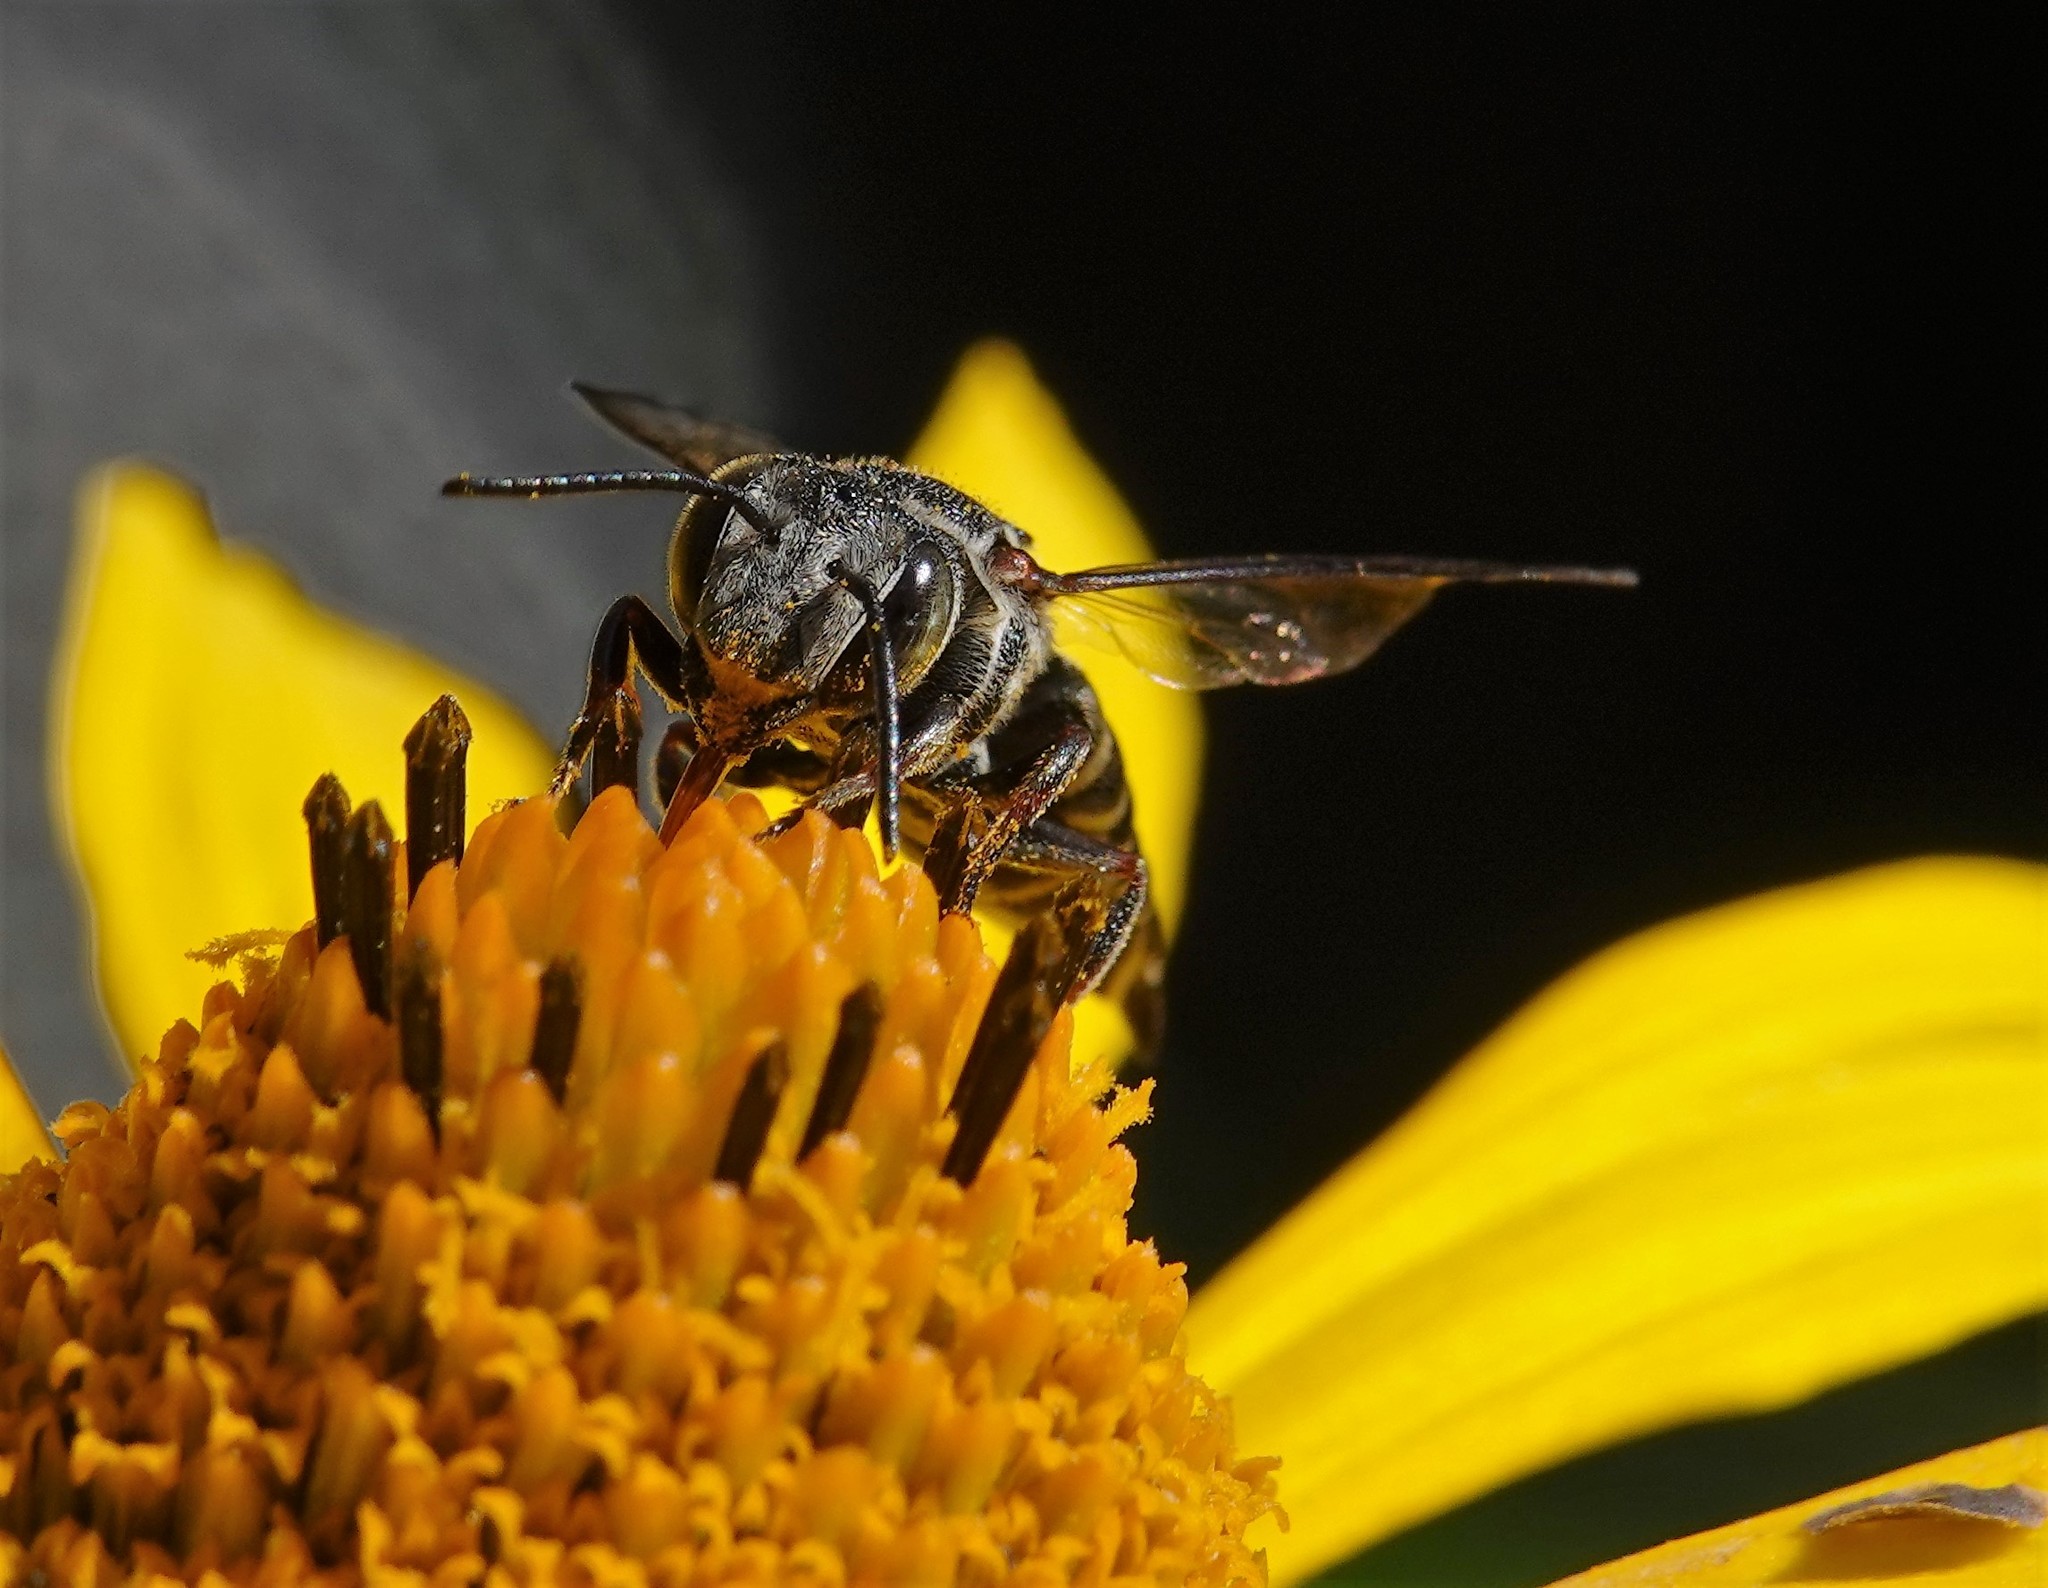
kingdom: Animalia
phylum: Arthropoda
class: Insecta
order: Hymenoptera
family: Megachilidae
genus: Coelioxys
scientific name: Coelioxys sayi
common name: Say's cuckoo leaf-cutter bee
